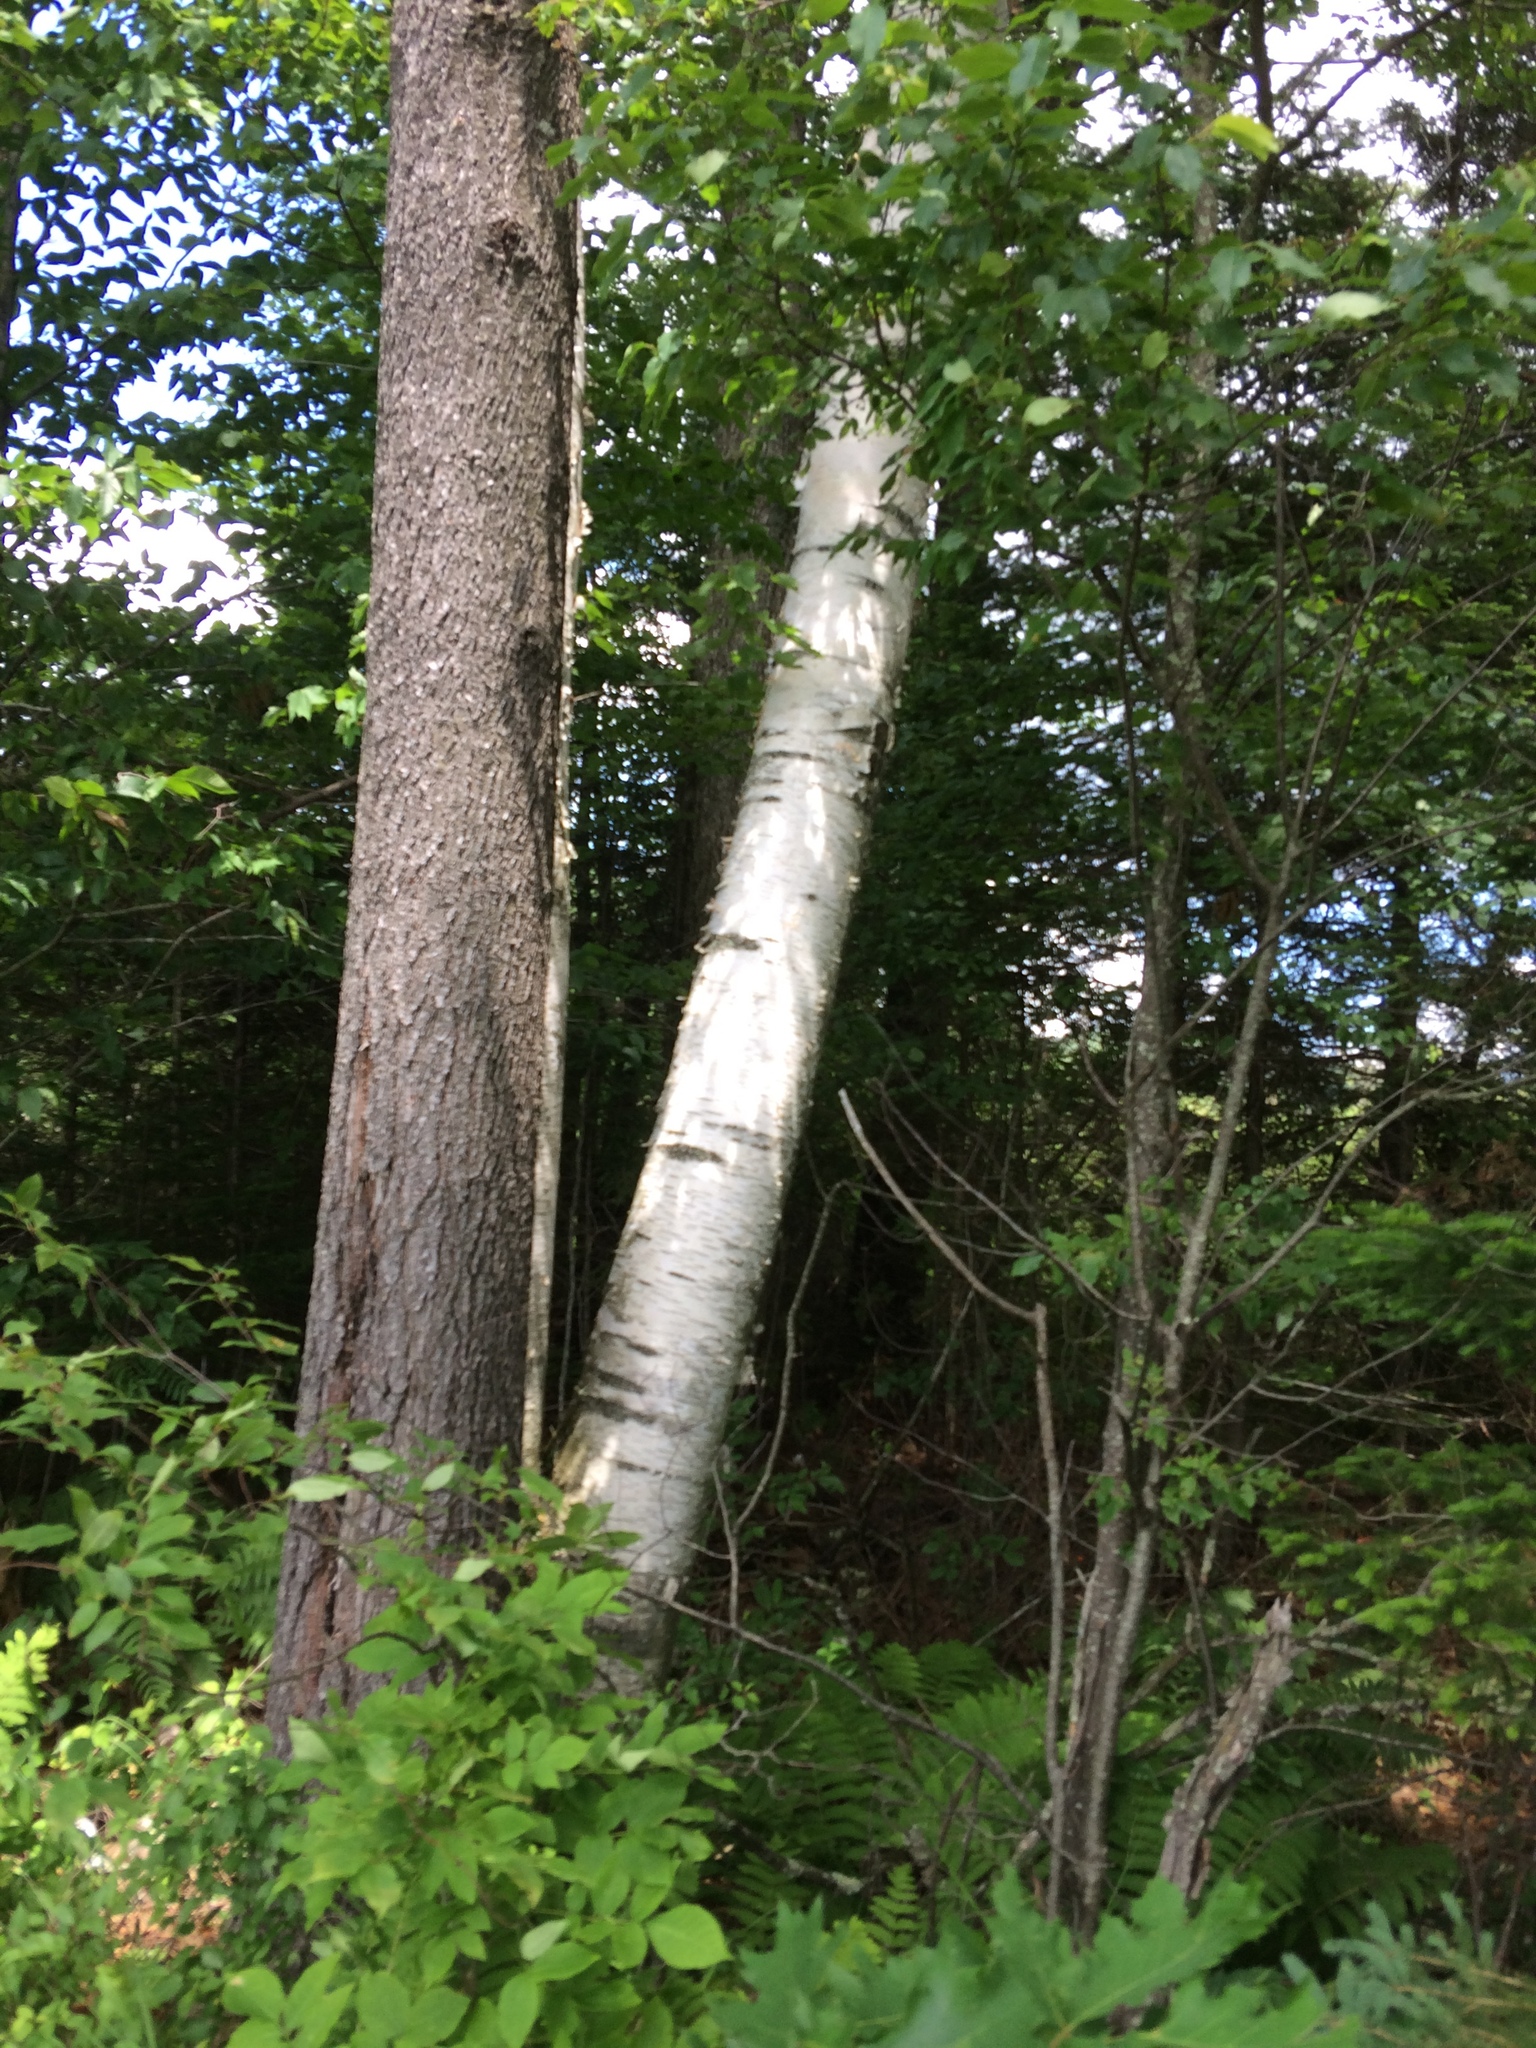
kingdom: Plantae
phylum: Tracheophyta
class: Magnoliopsida
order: Fagales
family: Betulaceae
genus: Betula
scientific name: Betula papyrifera
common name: Paper birch
